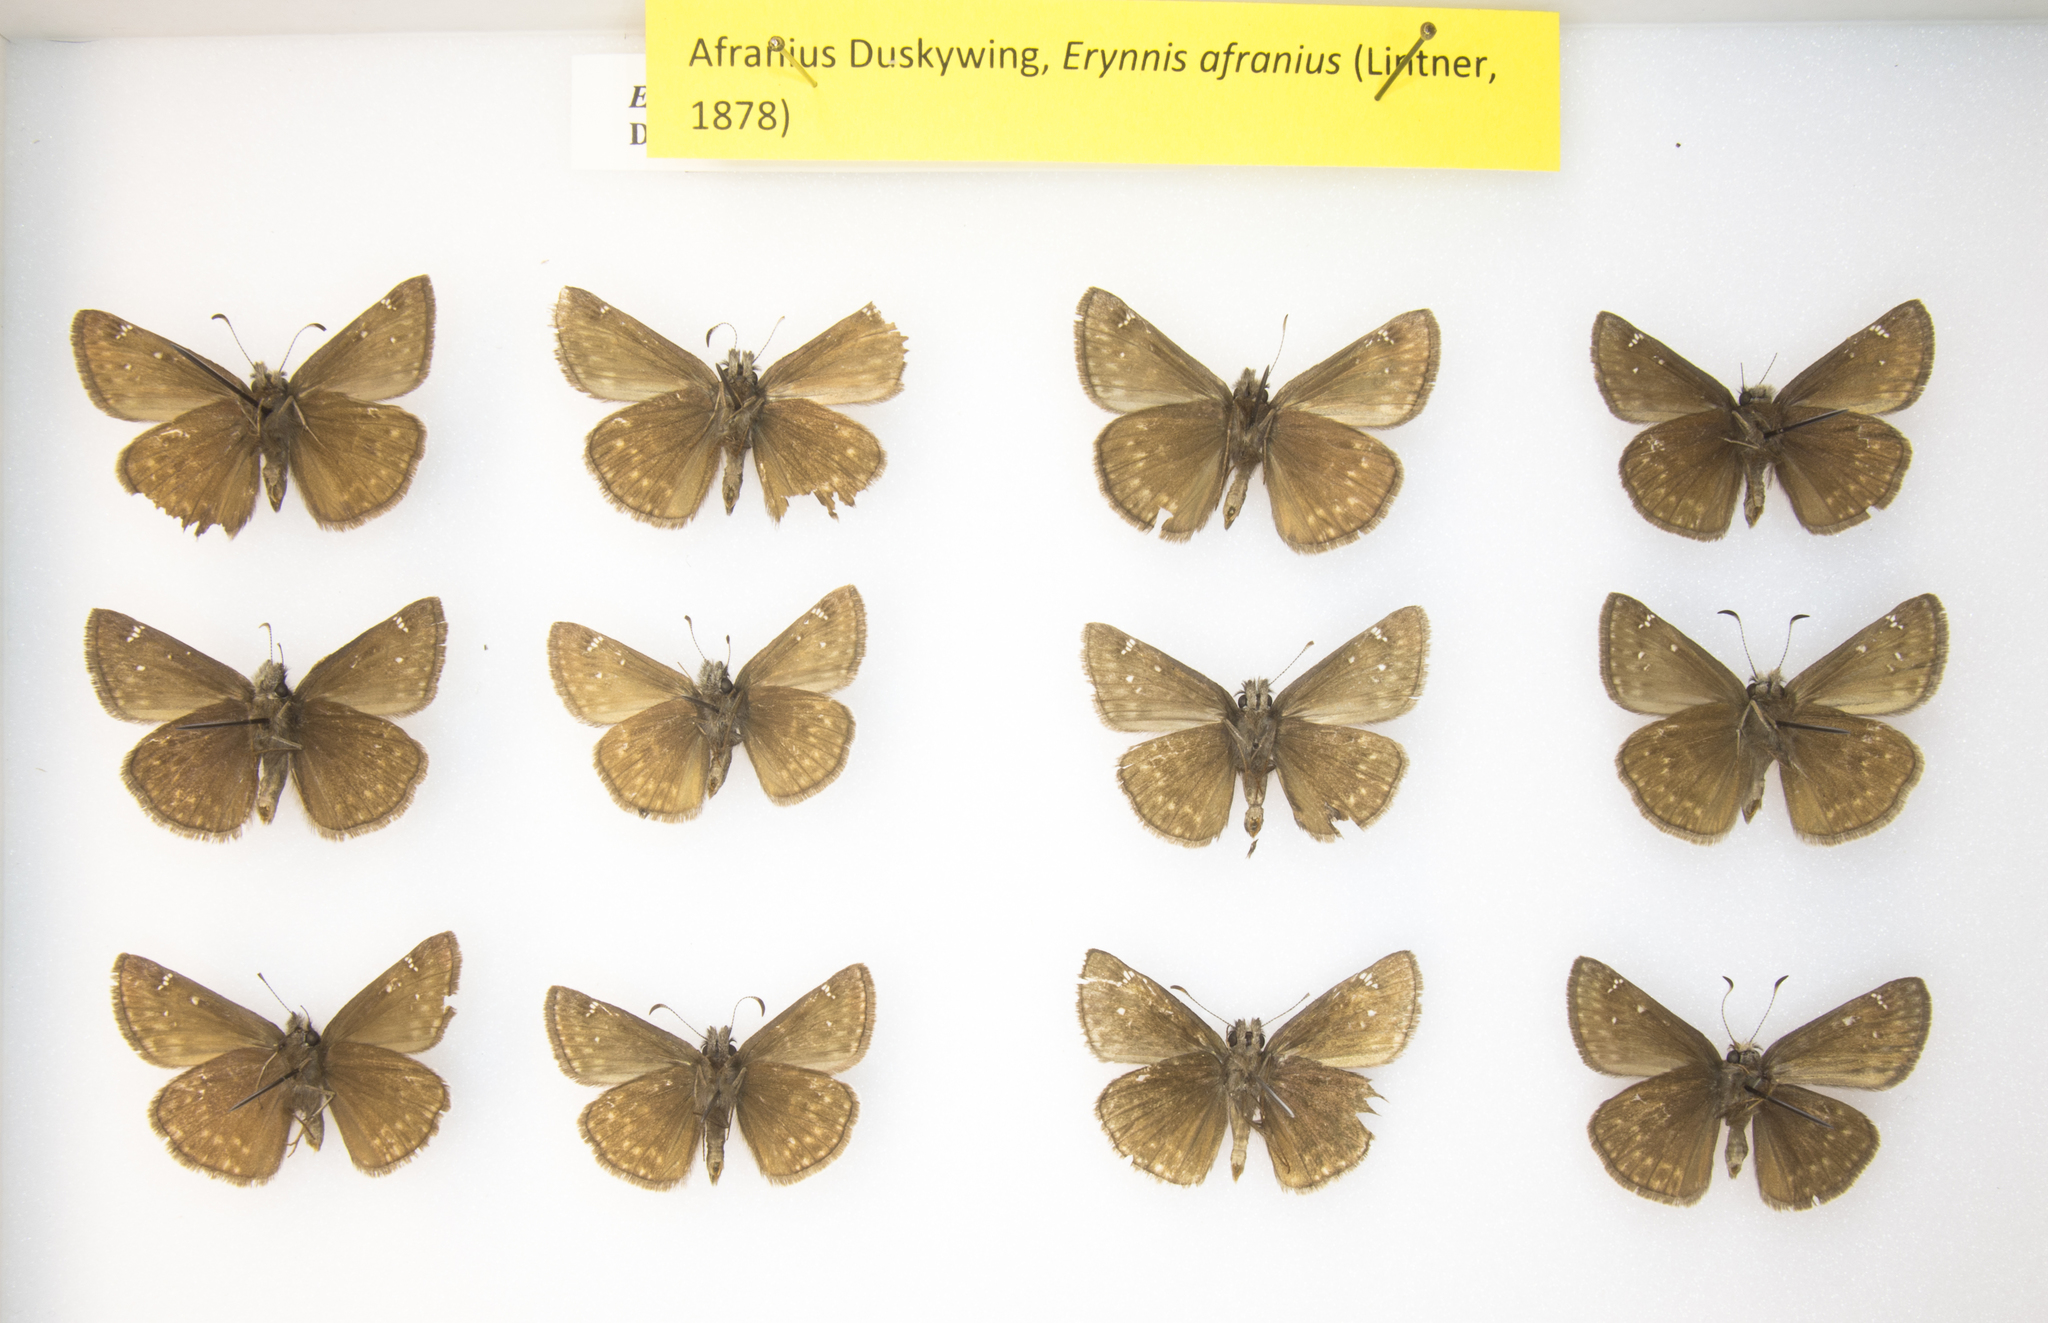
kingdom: Animalia
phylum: Arthropoda
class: Insecta
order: Lepidoptera
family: Hesperiidae
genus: Erynnis
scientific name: Erynnis persius
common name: Persius duskywing
